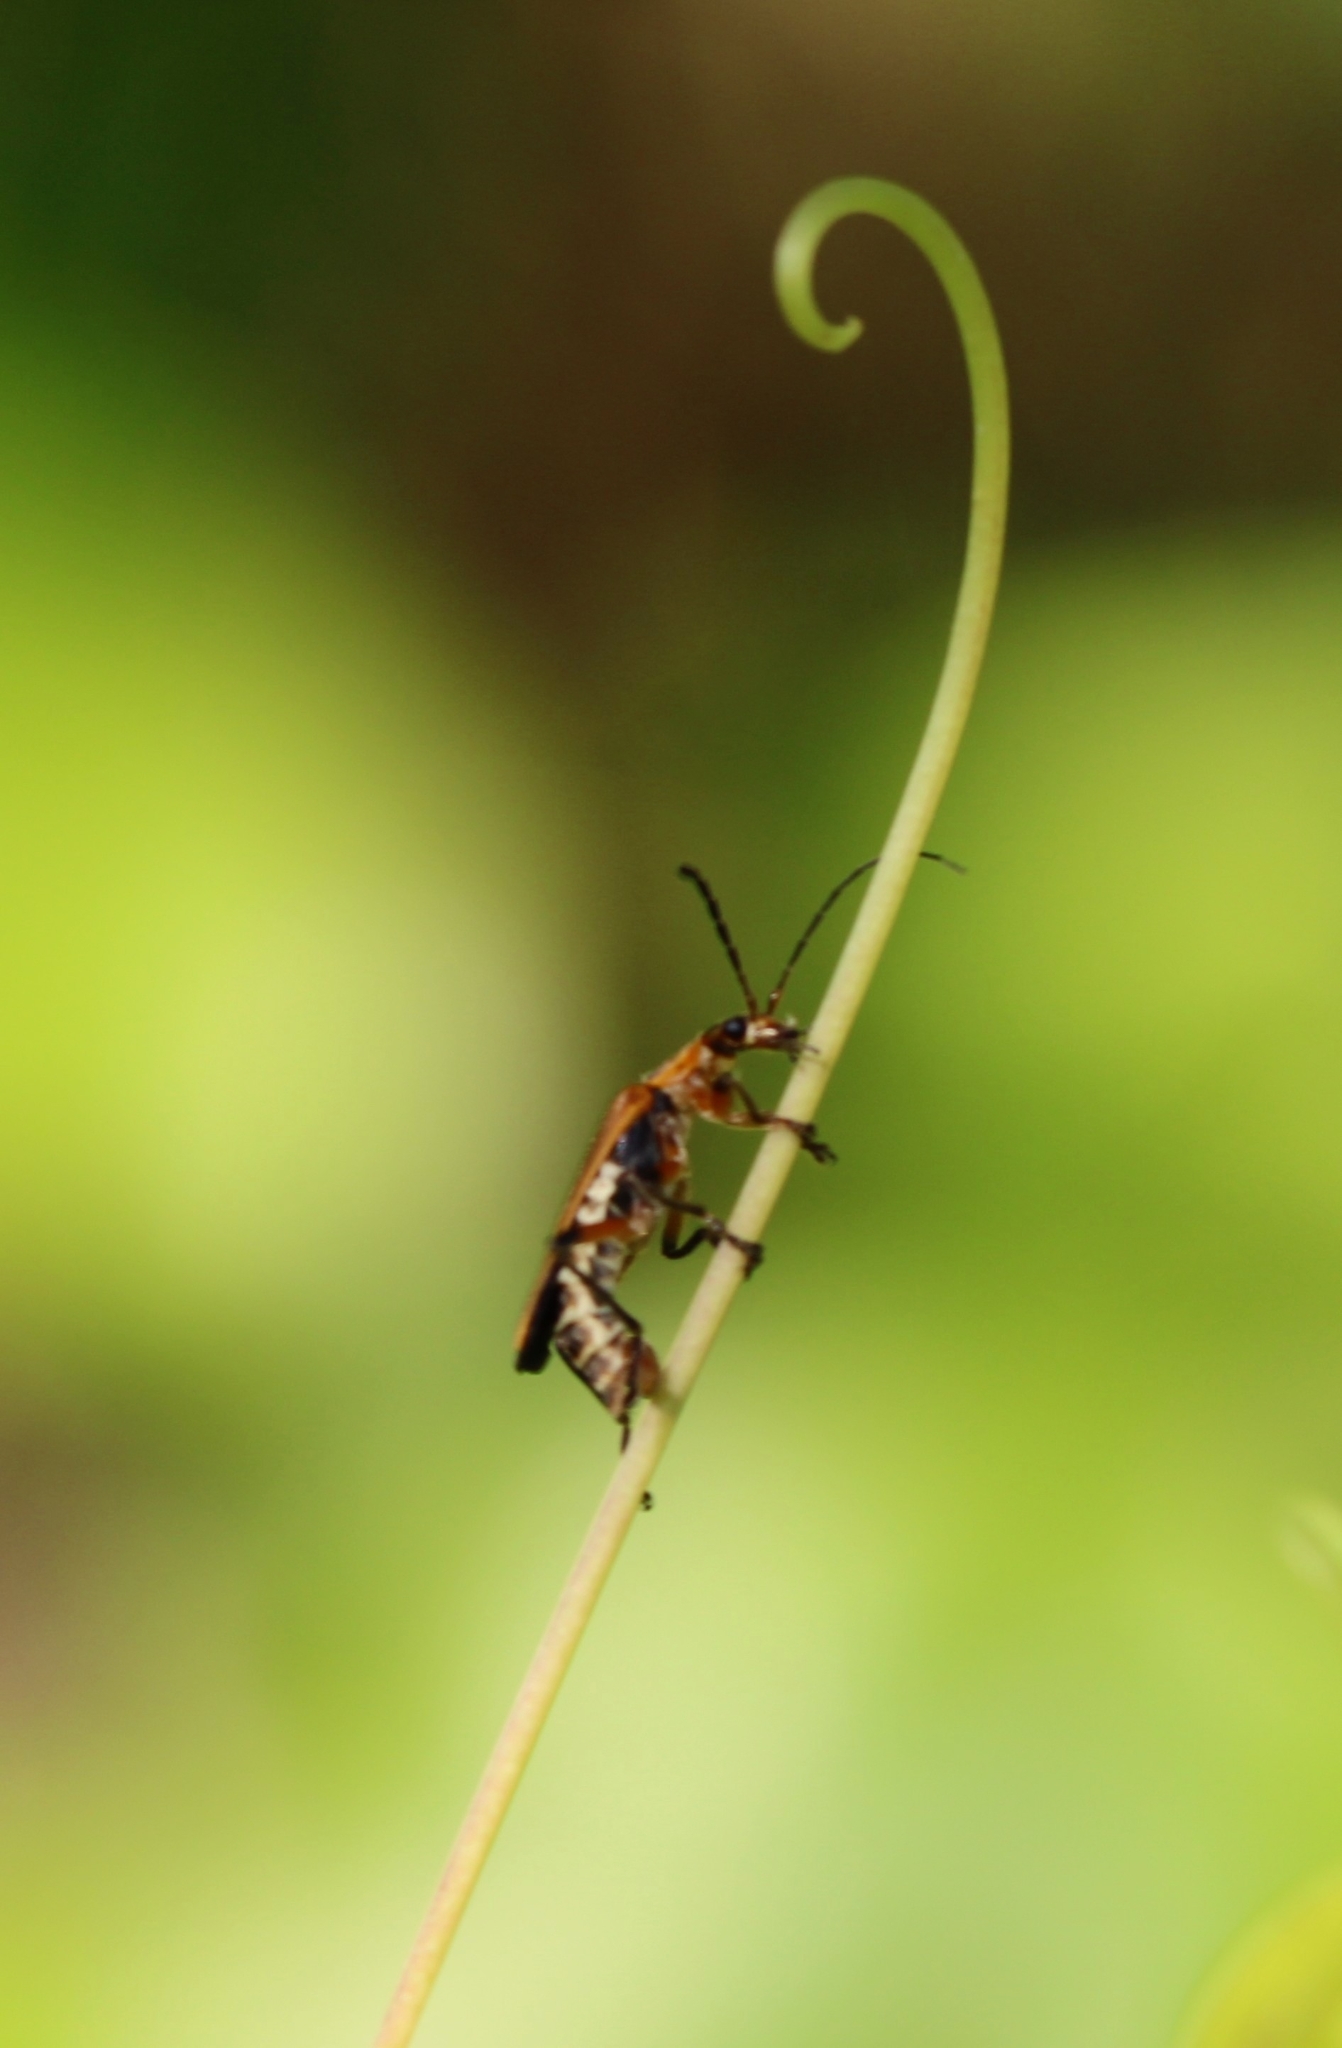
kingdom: Animalia
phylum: Arthropoda
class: Insecta
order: Coleoptera
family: Cantharidae
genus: Chauliognathus
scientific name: Chauliognathus marginatus
